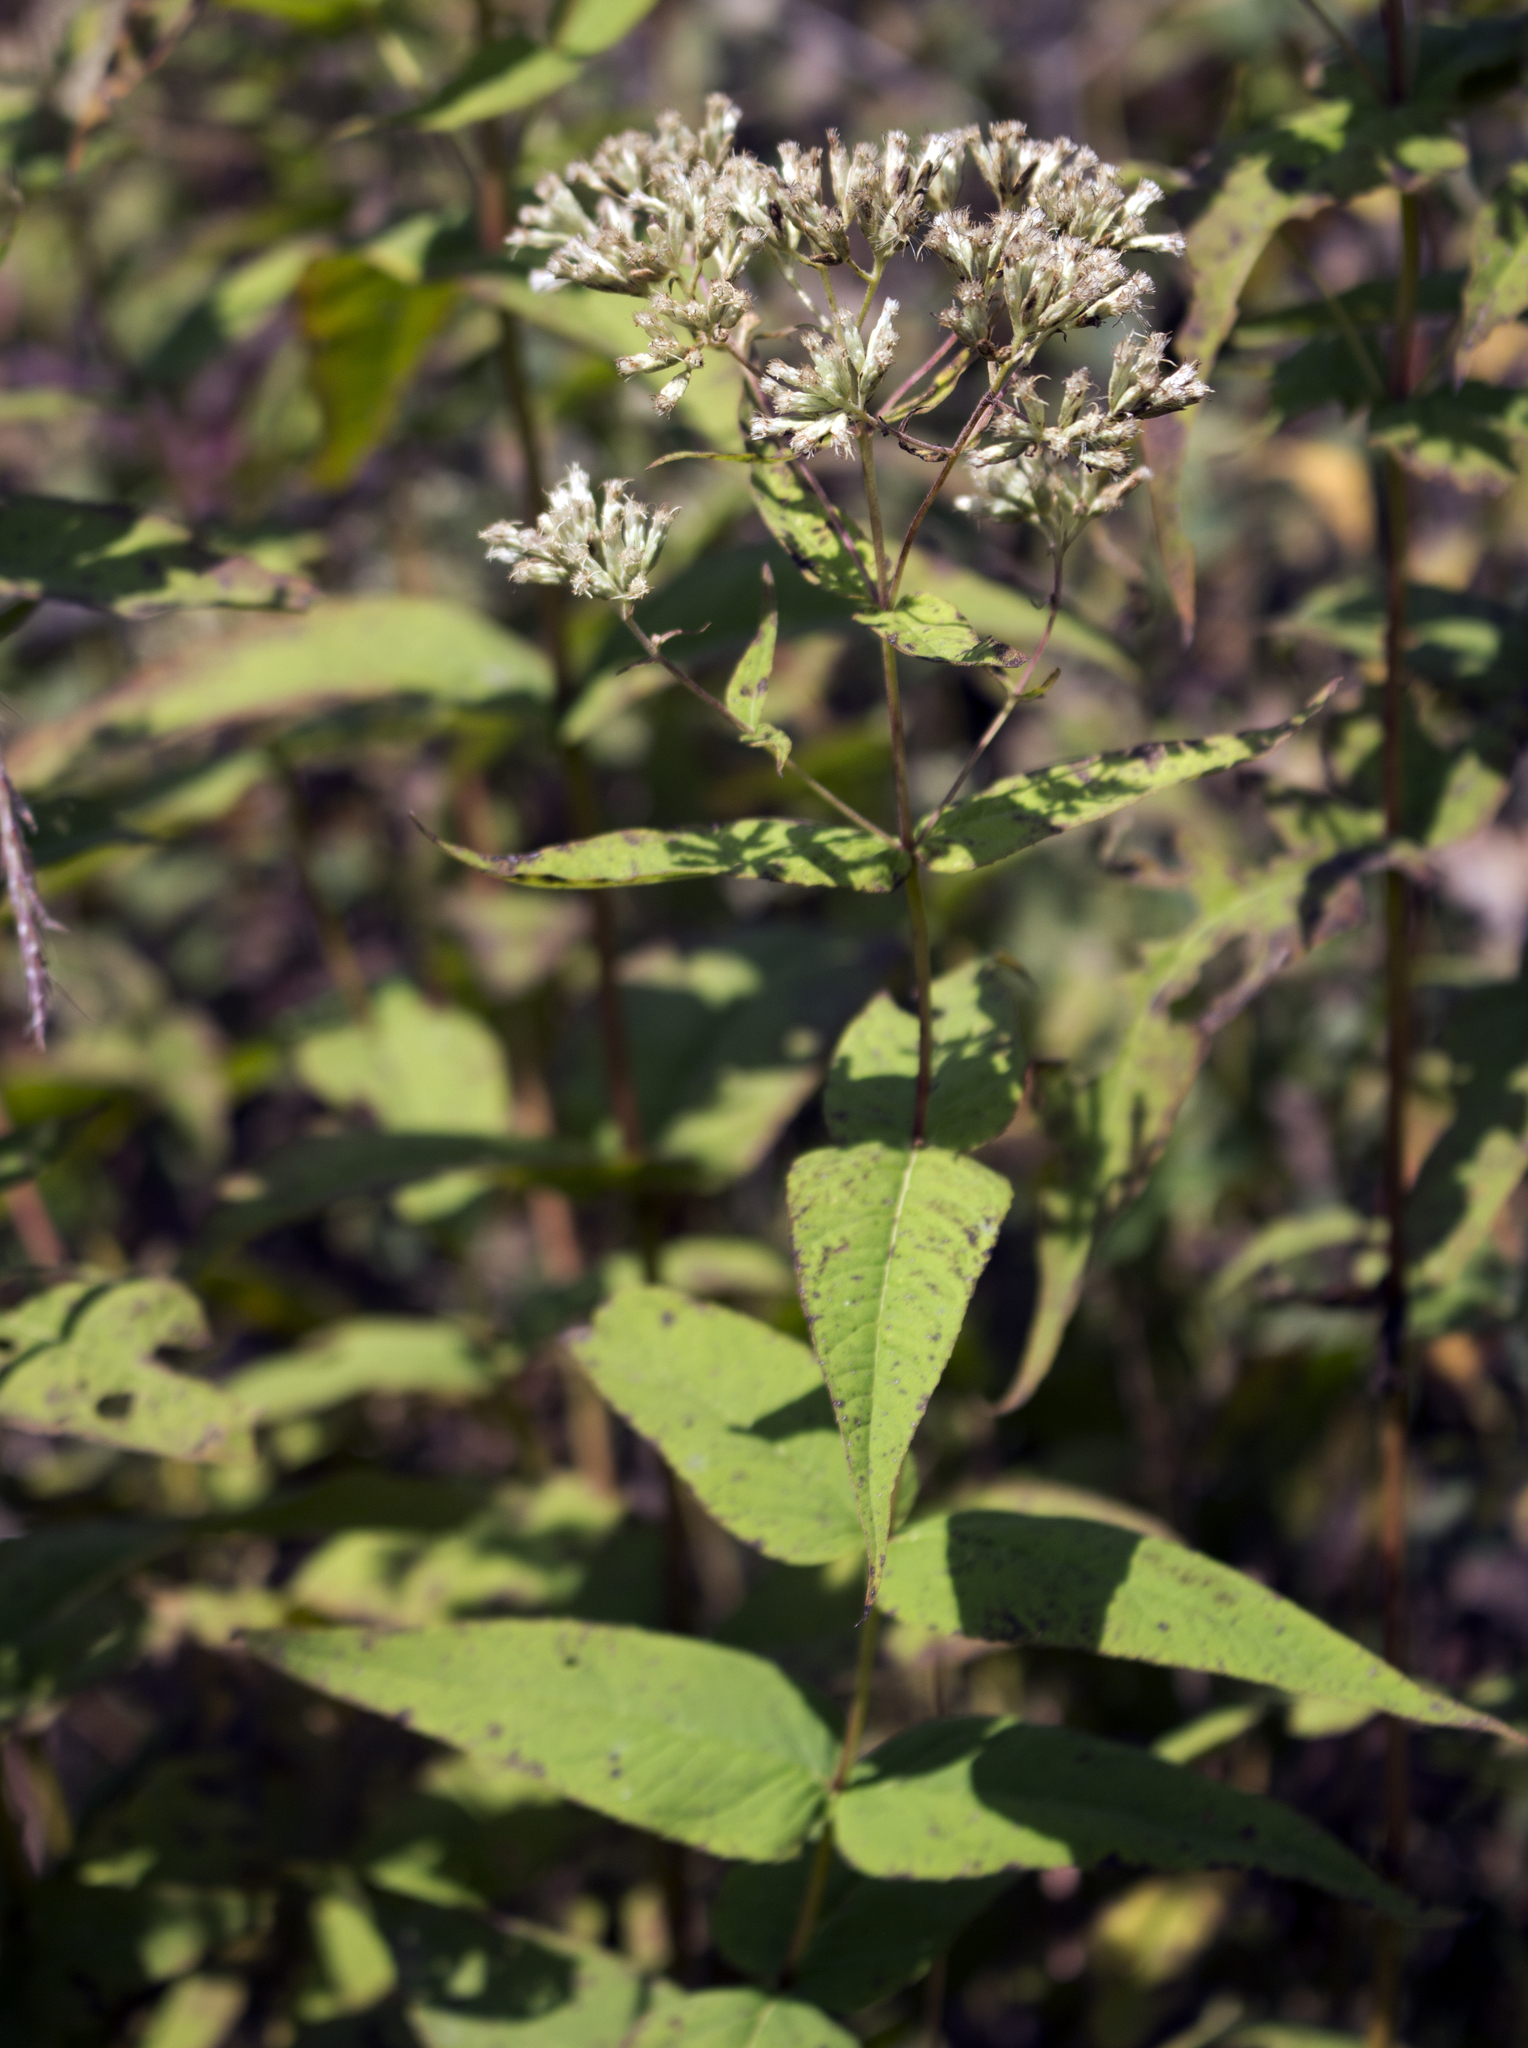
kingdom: Plantae
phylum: Tracheophyta
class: Magnoliopsida
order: Asterales
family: Asteraceae
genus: Eupatorium
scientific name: Eupatorium sessilifolium
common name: Upland boneset
